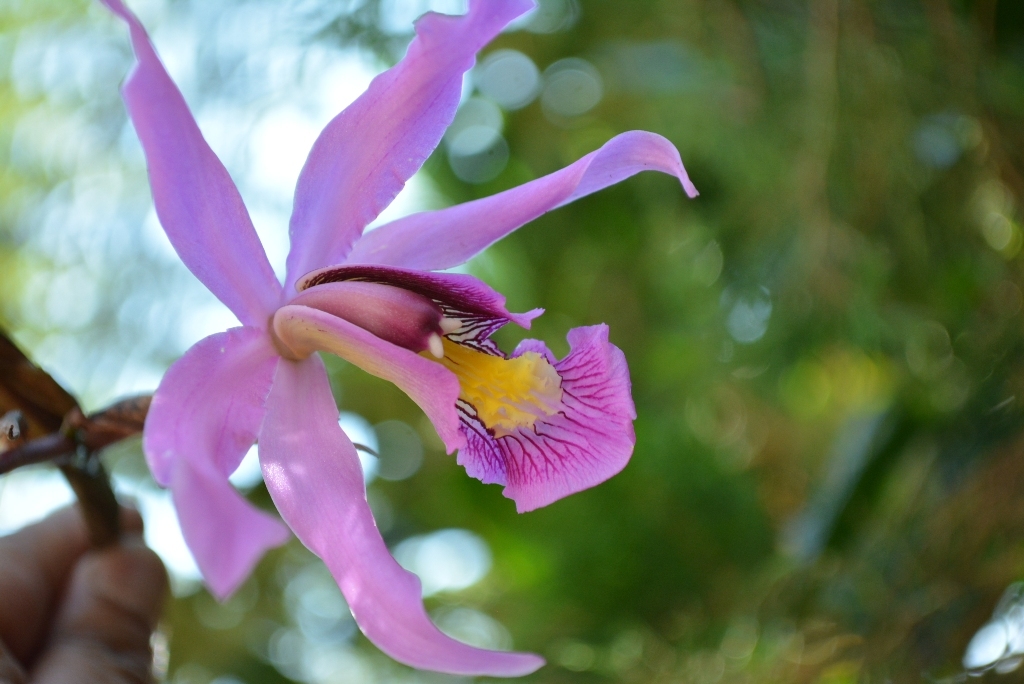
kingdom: Plantae
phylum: Tracheophyta
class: Liliopsida
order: Asparagales
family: Orchidaceae
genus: Laelia
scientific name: Laelia superbiens
